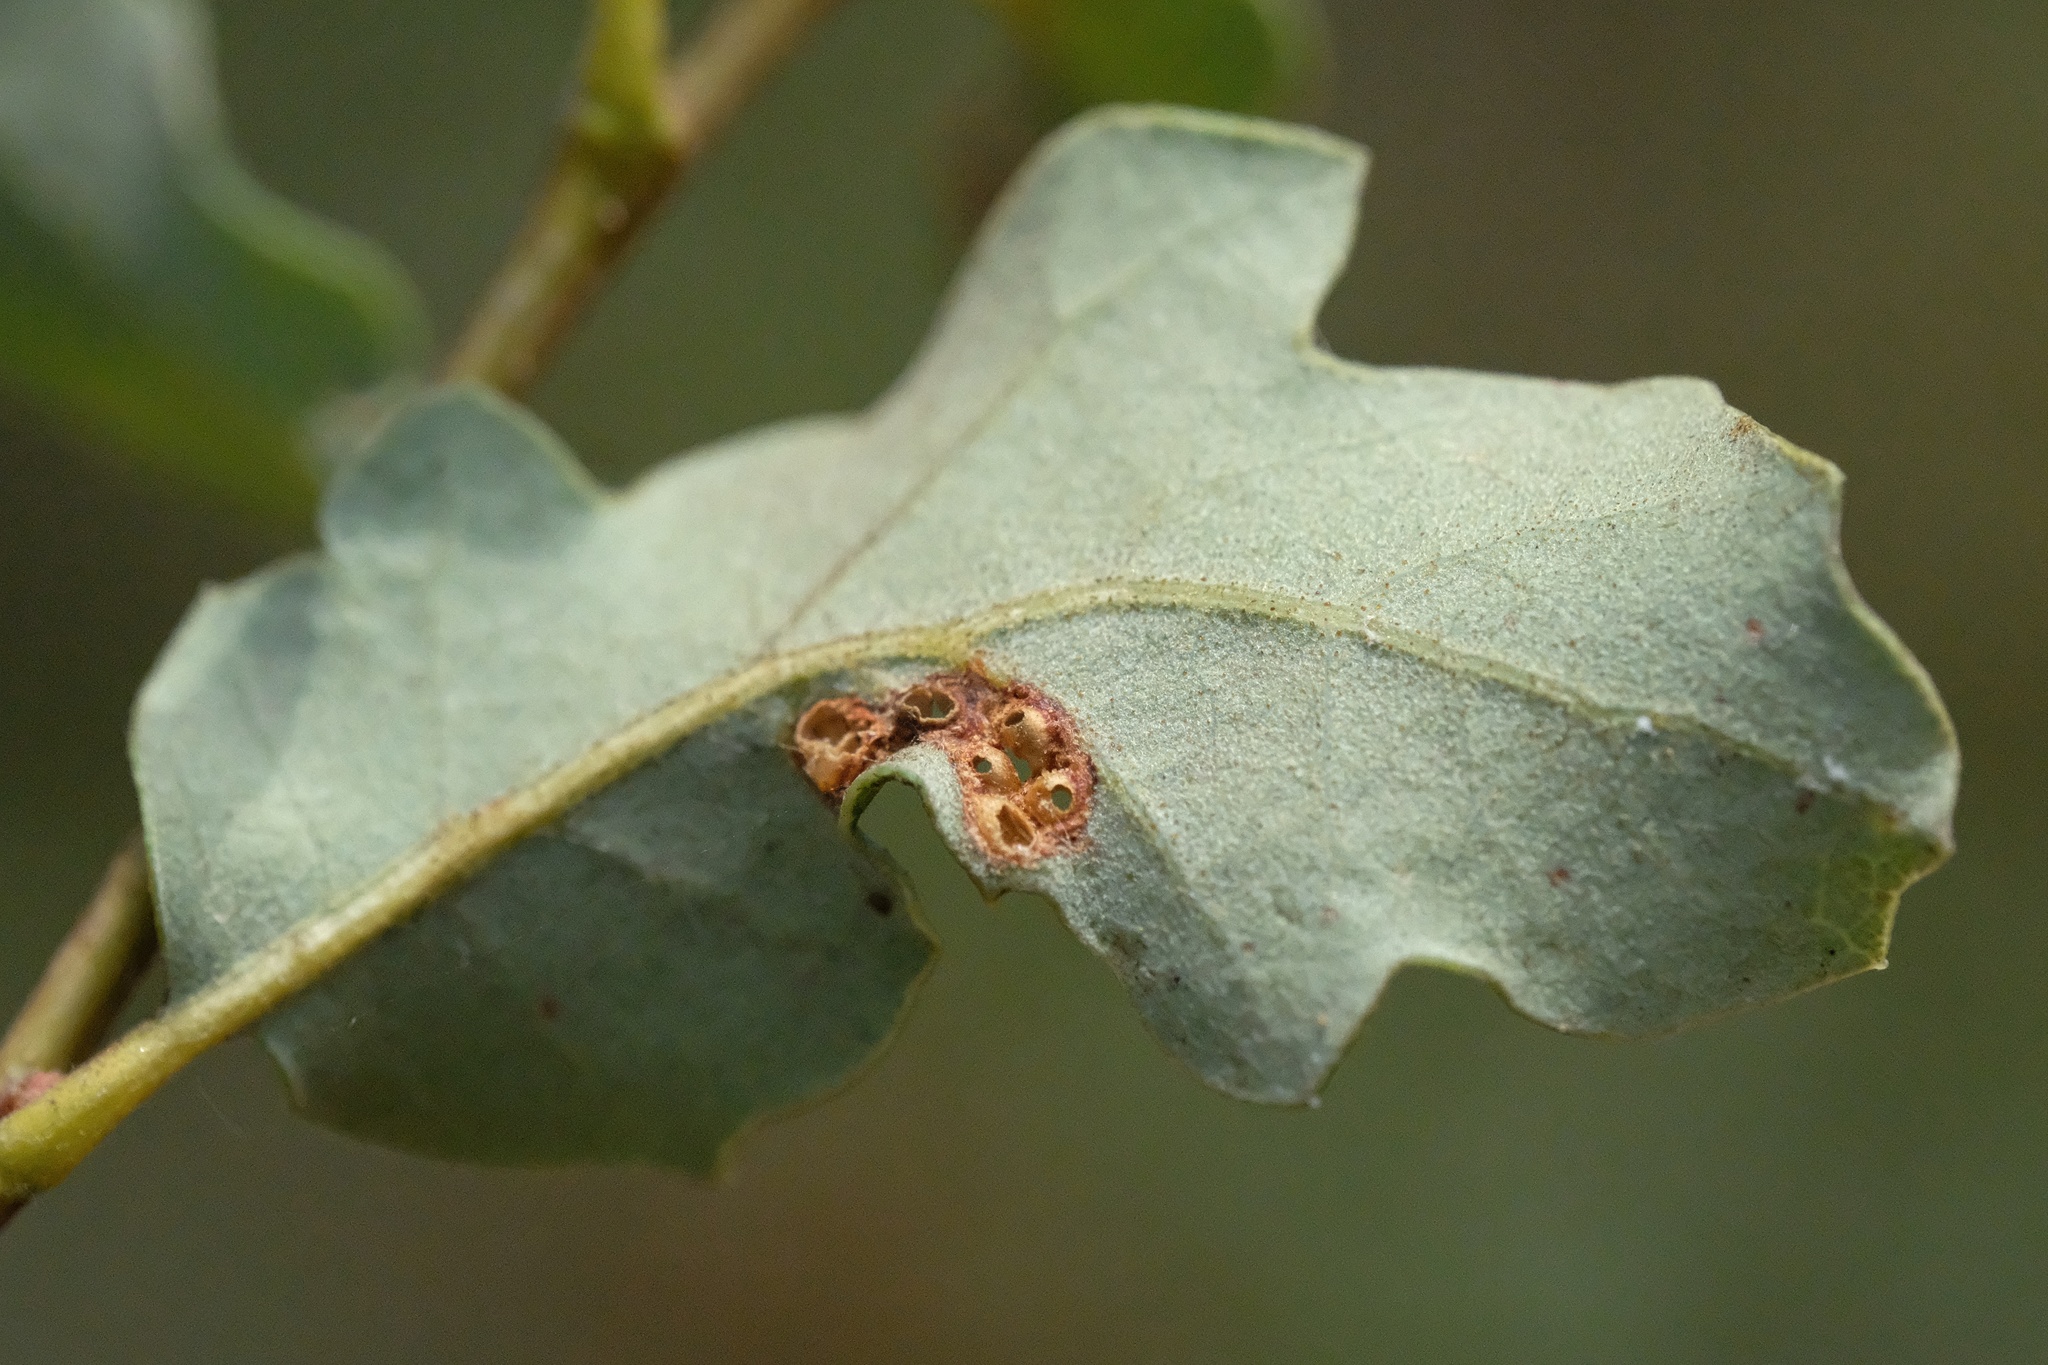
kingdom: Animalia
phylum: Arthropoda
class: Insecta
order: Hymenoptera
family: Cynipidae
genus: Neuroterus
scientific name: Neuroterus saltarius
